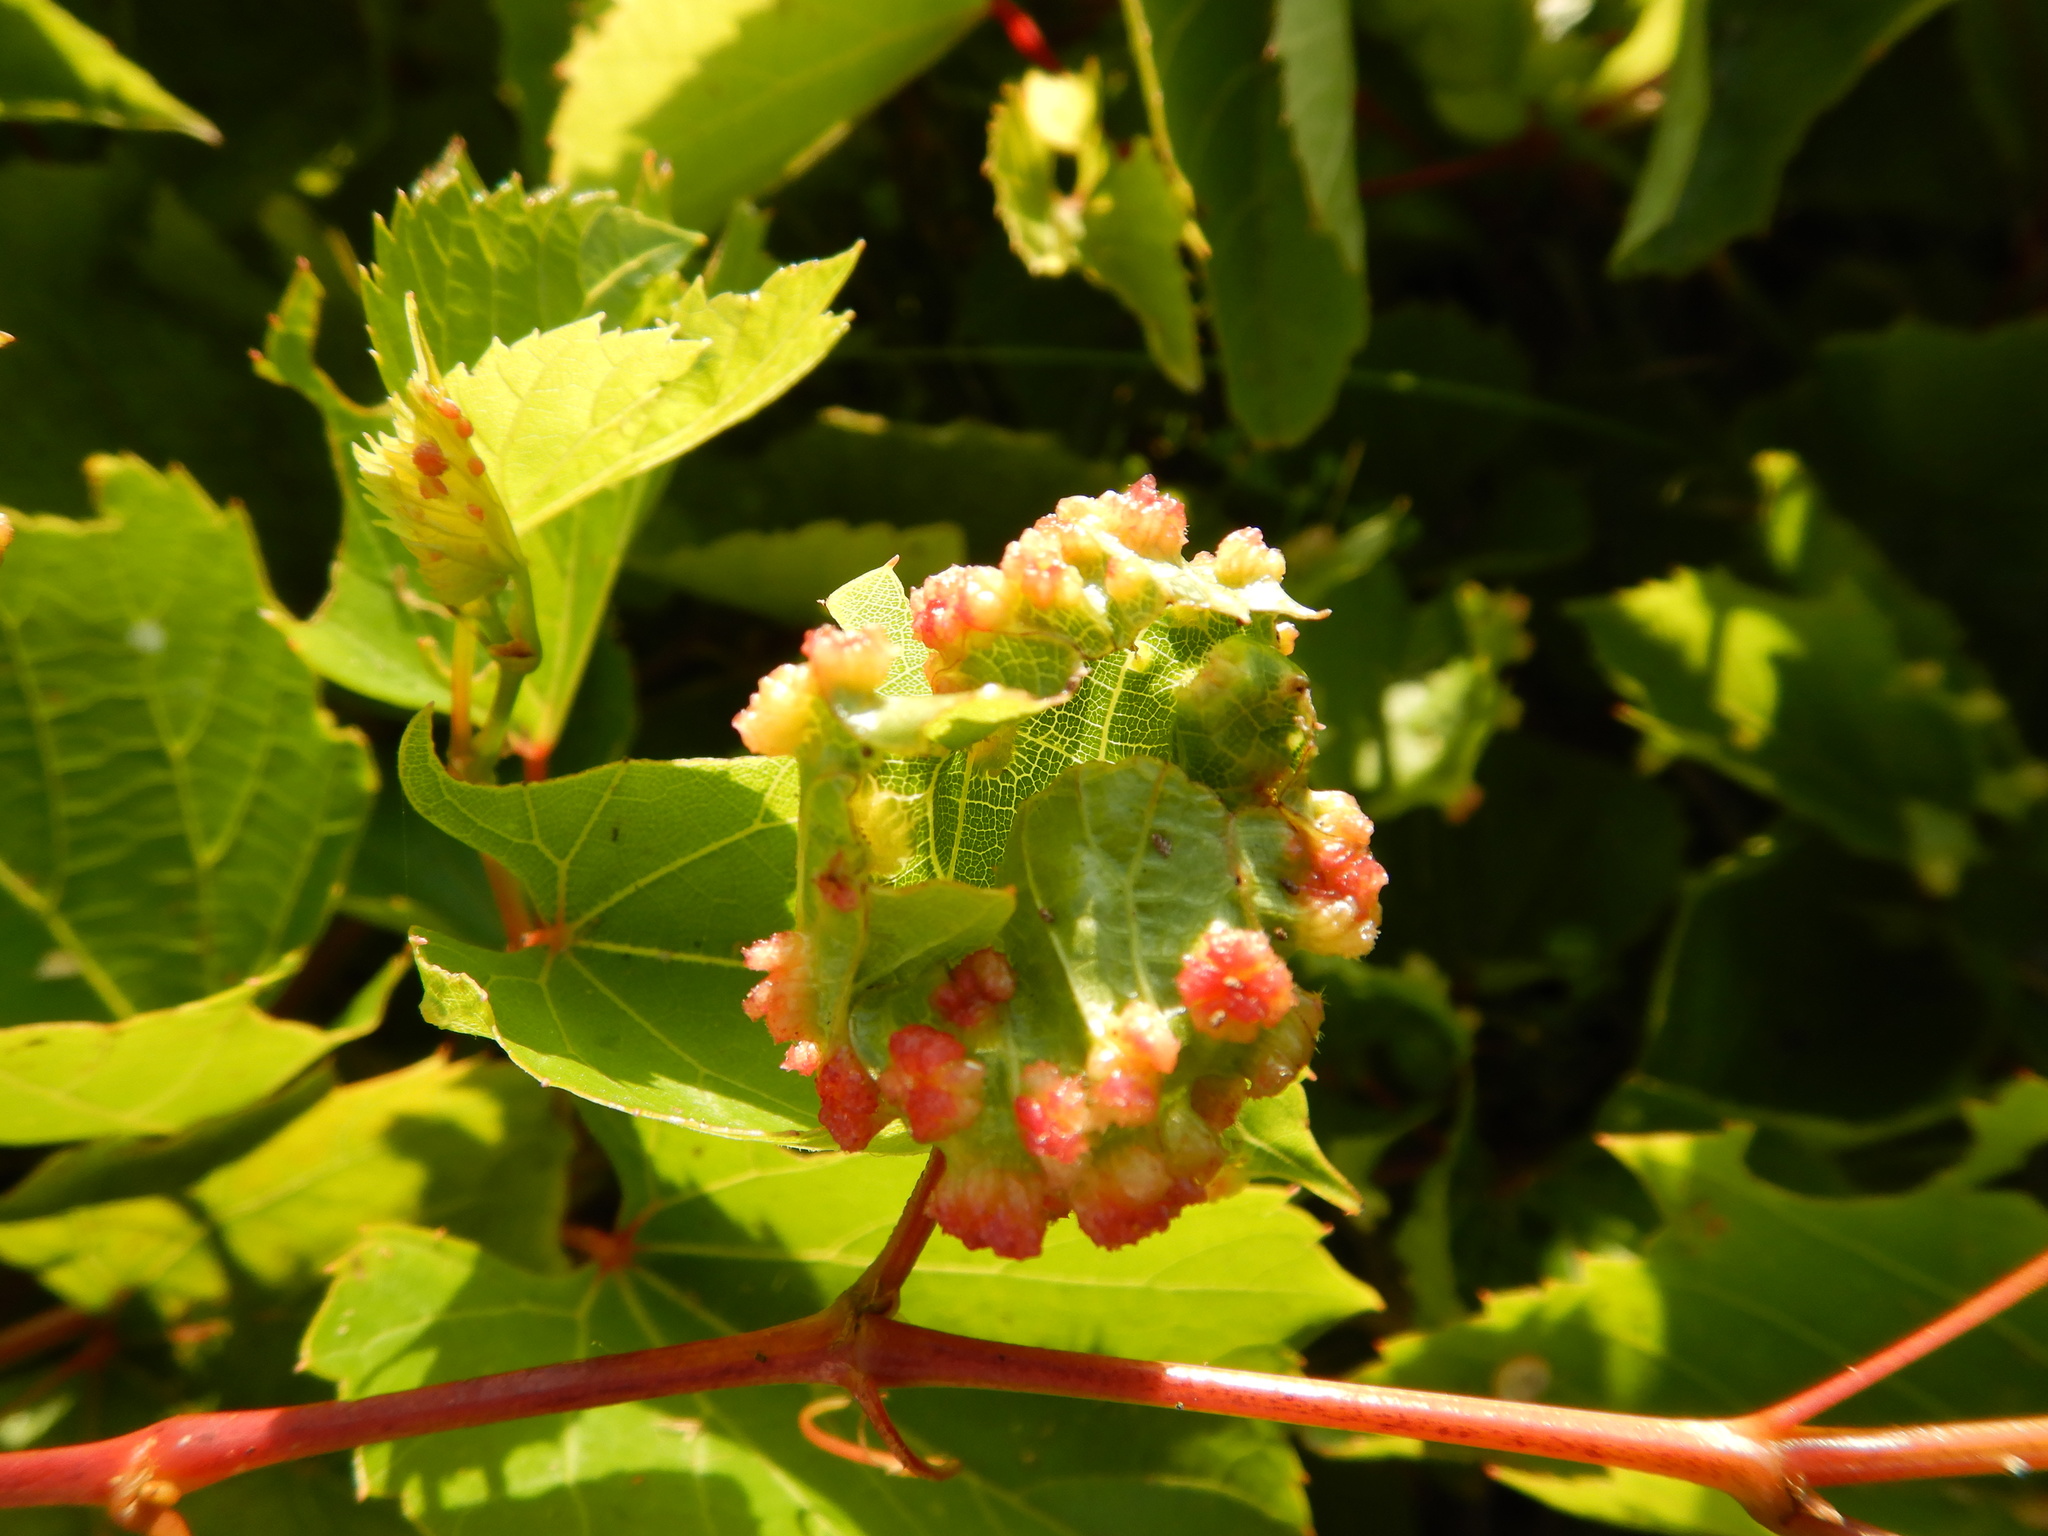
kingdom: Animalia
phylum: Arthropoda
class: Insecta
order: Hemiptera
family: Phylloxeridae
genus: Daktulosphaira
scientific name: Daktulosphaira vitifoliae
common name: Grape phylloxera
